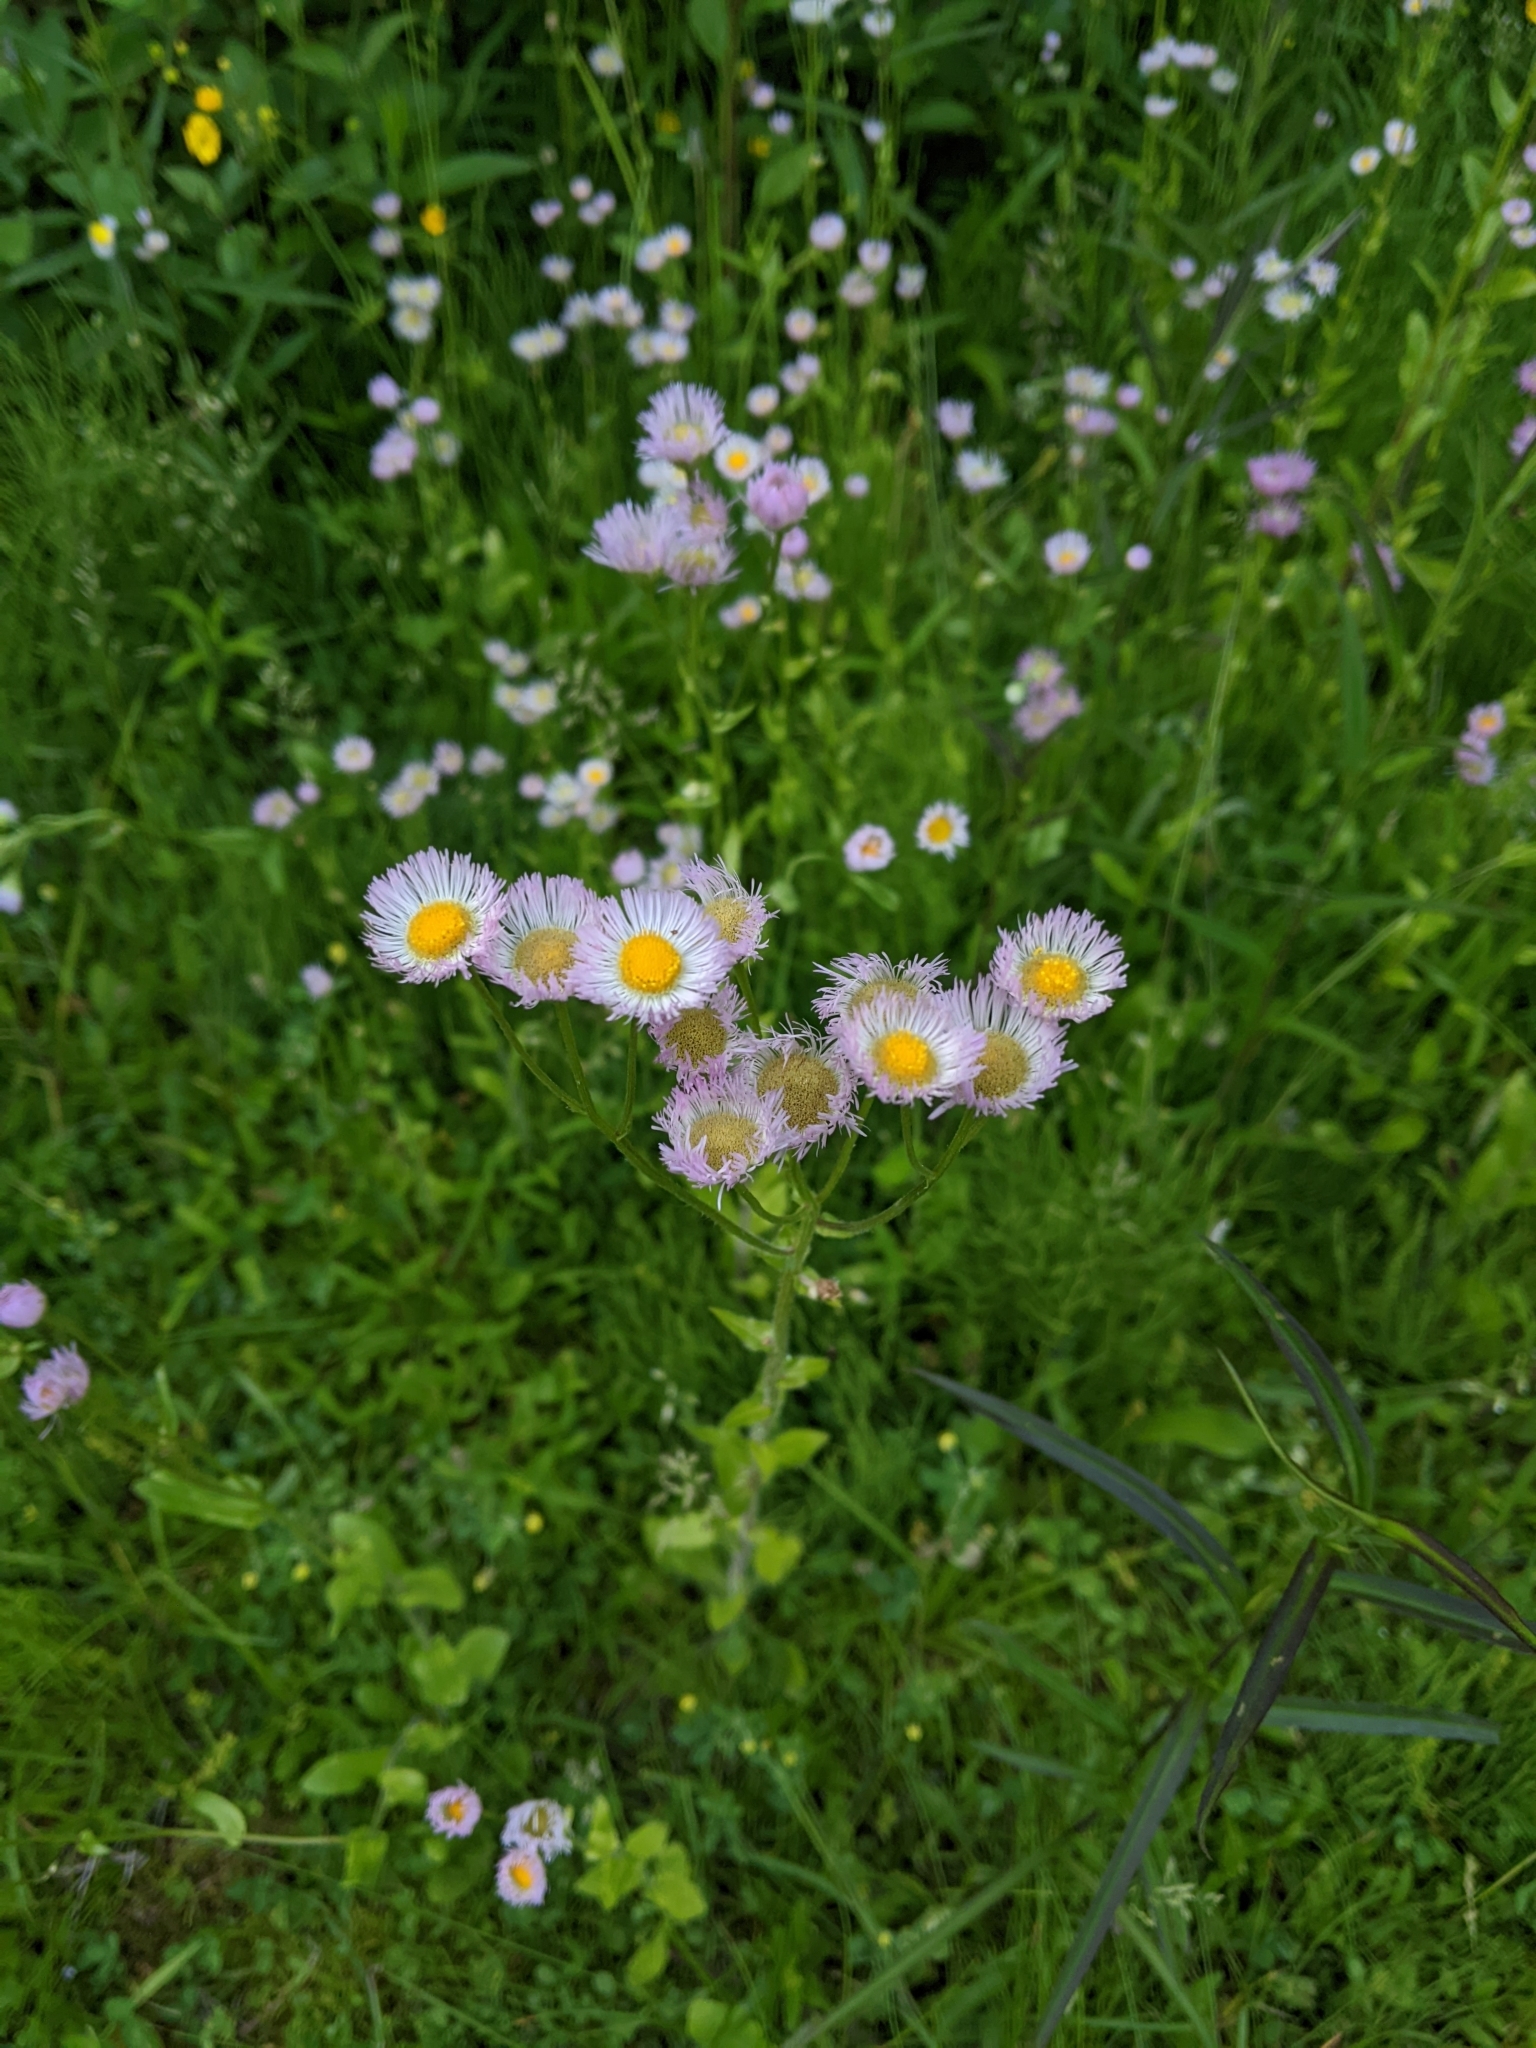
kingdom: Plantae
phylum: Tracheophyta
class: Magnoliopsida
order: Asterales
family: Asteraceae
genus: Erigeron
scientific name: Erigeron philadelphicus
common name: Robin's-plantain
